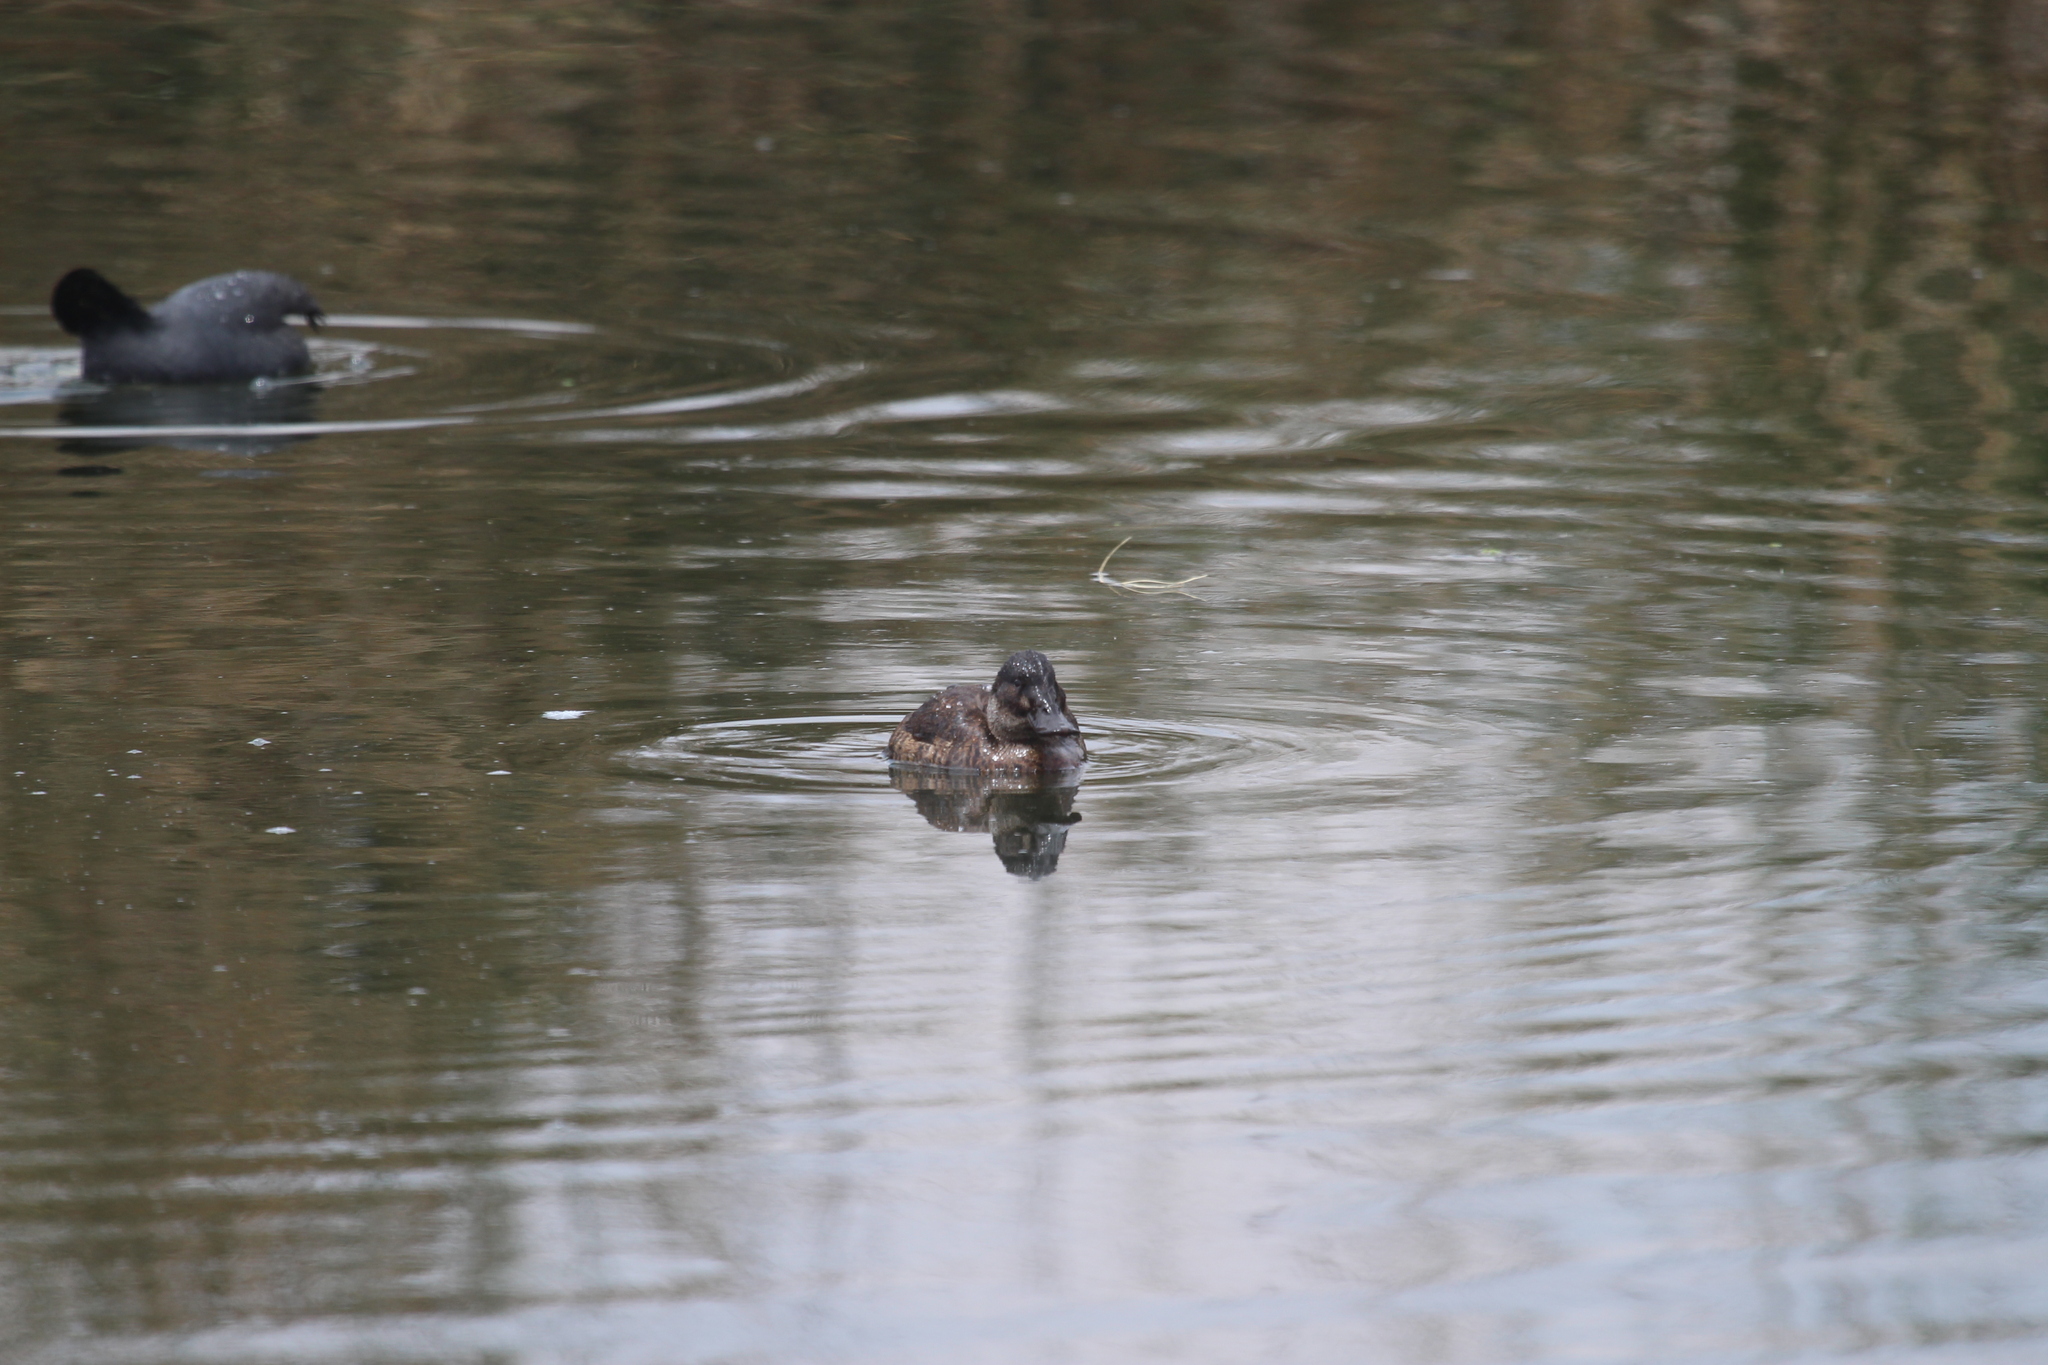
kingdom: Animalia
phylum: Chordata
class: Aves
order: Anseriformes
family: Anatidae
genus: Oxyura
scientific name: Oxyura ferruginea
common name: Andean duck
